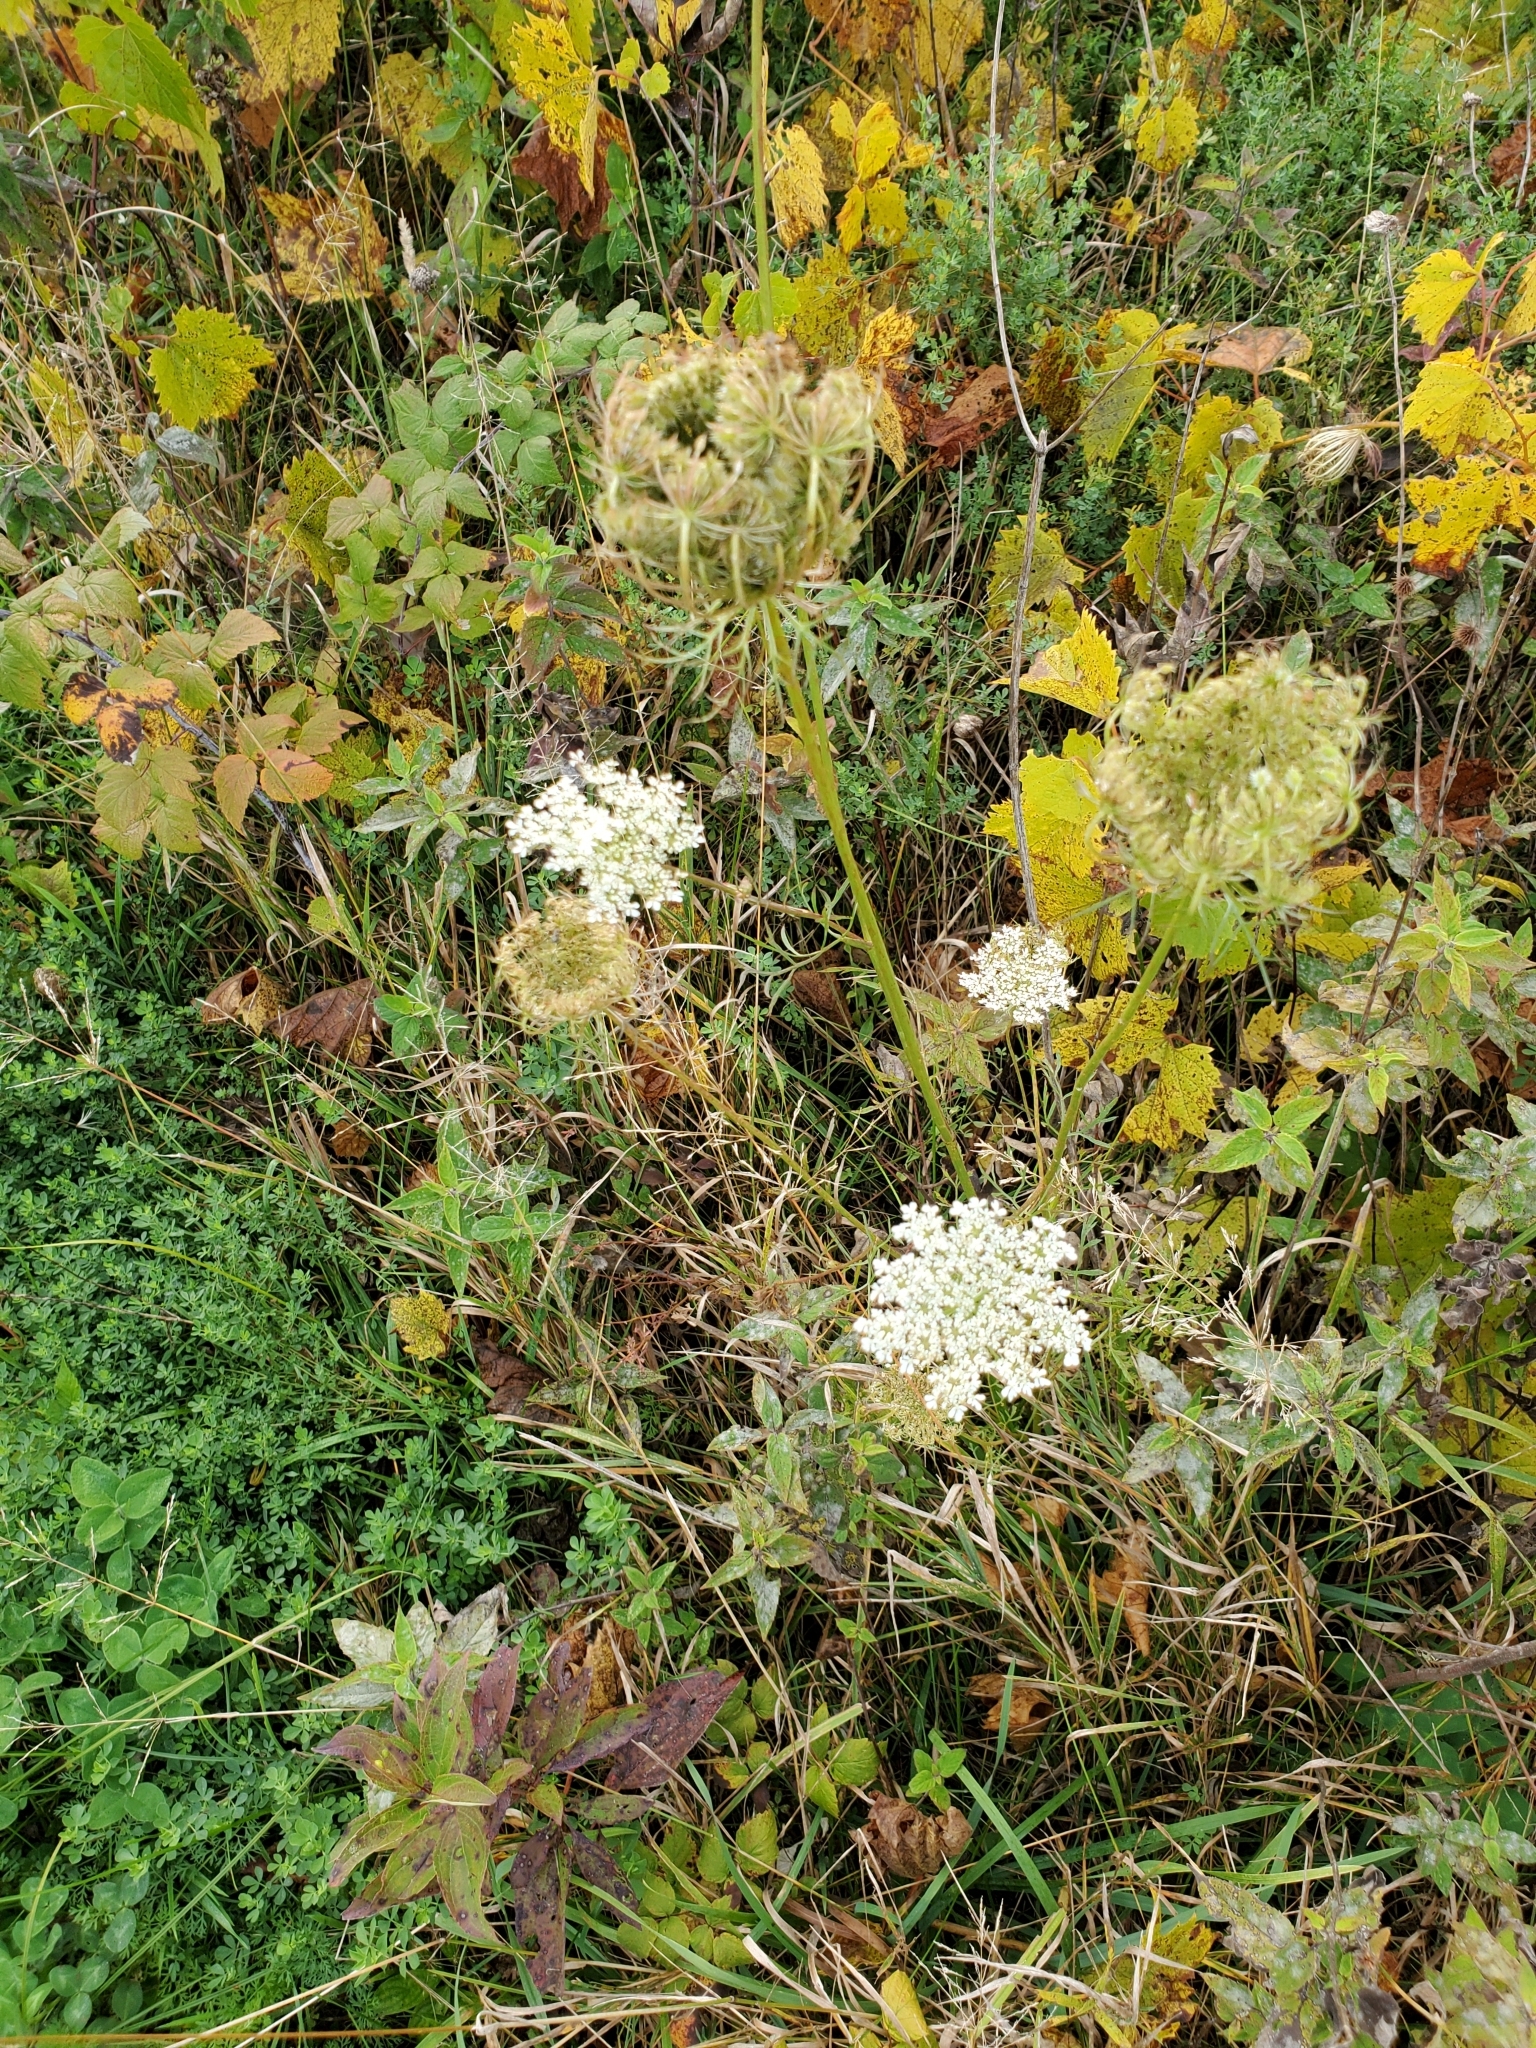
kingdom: Plantae
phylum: Tracheophyta
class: Magnoliopsida
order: Apiales
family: Apiaceae
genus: Daucus
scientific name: Daucus carota
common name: Wild carrot
